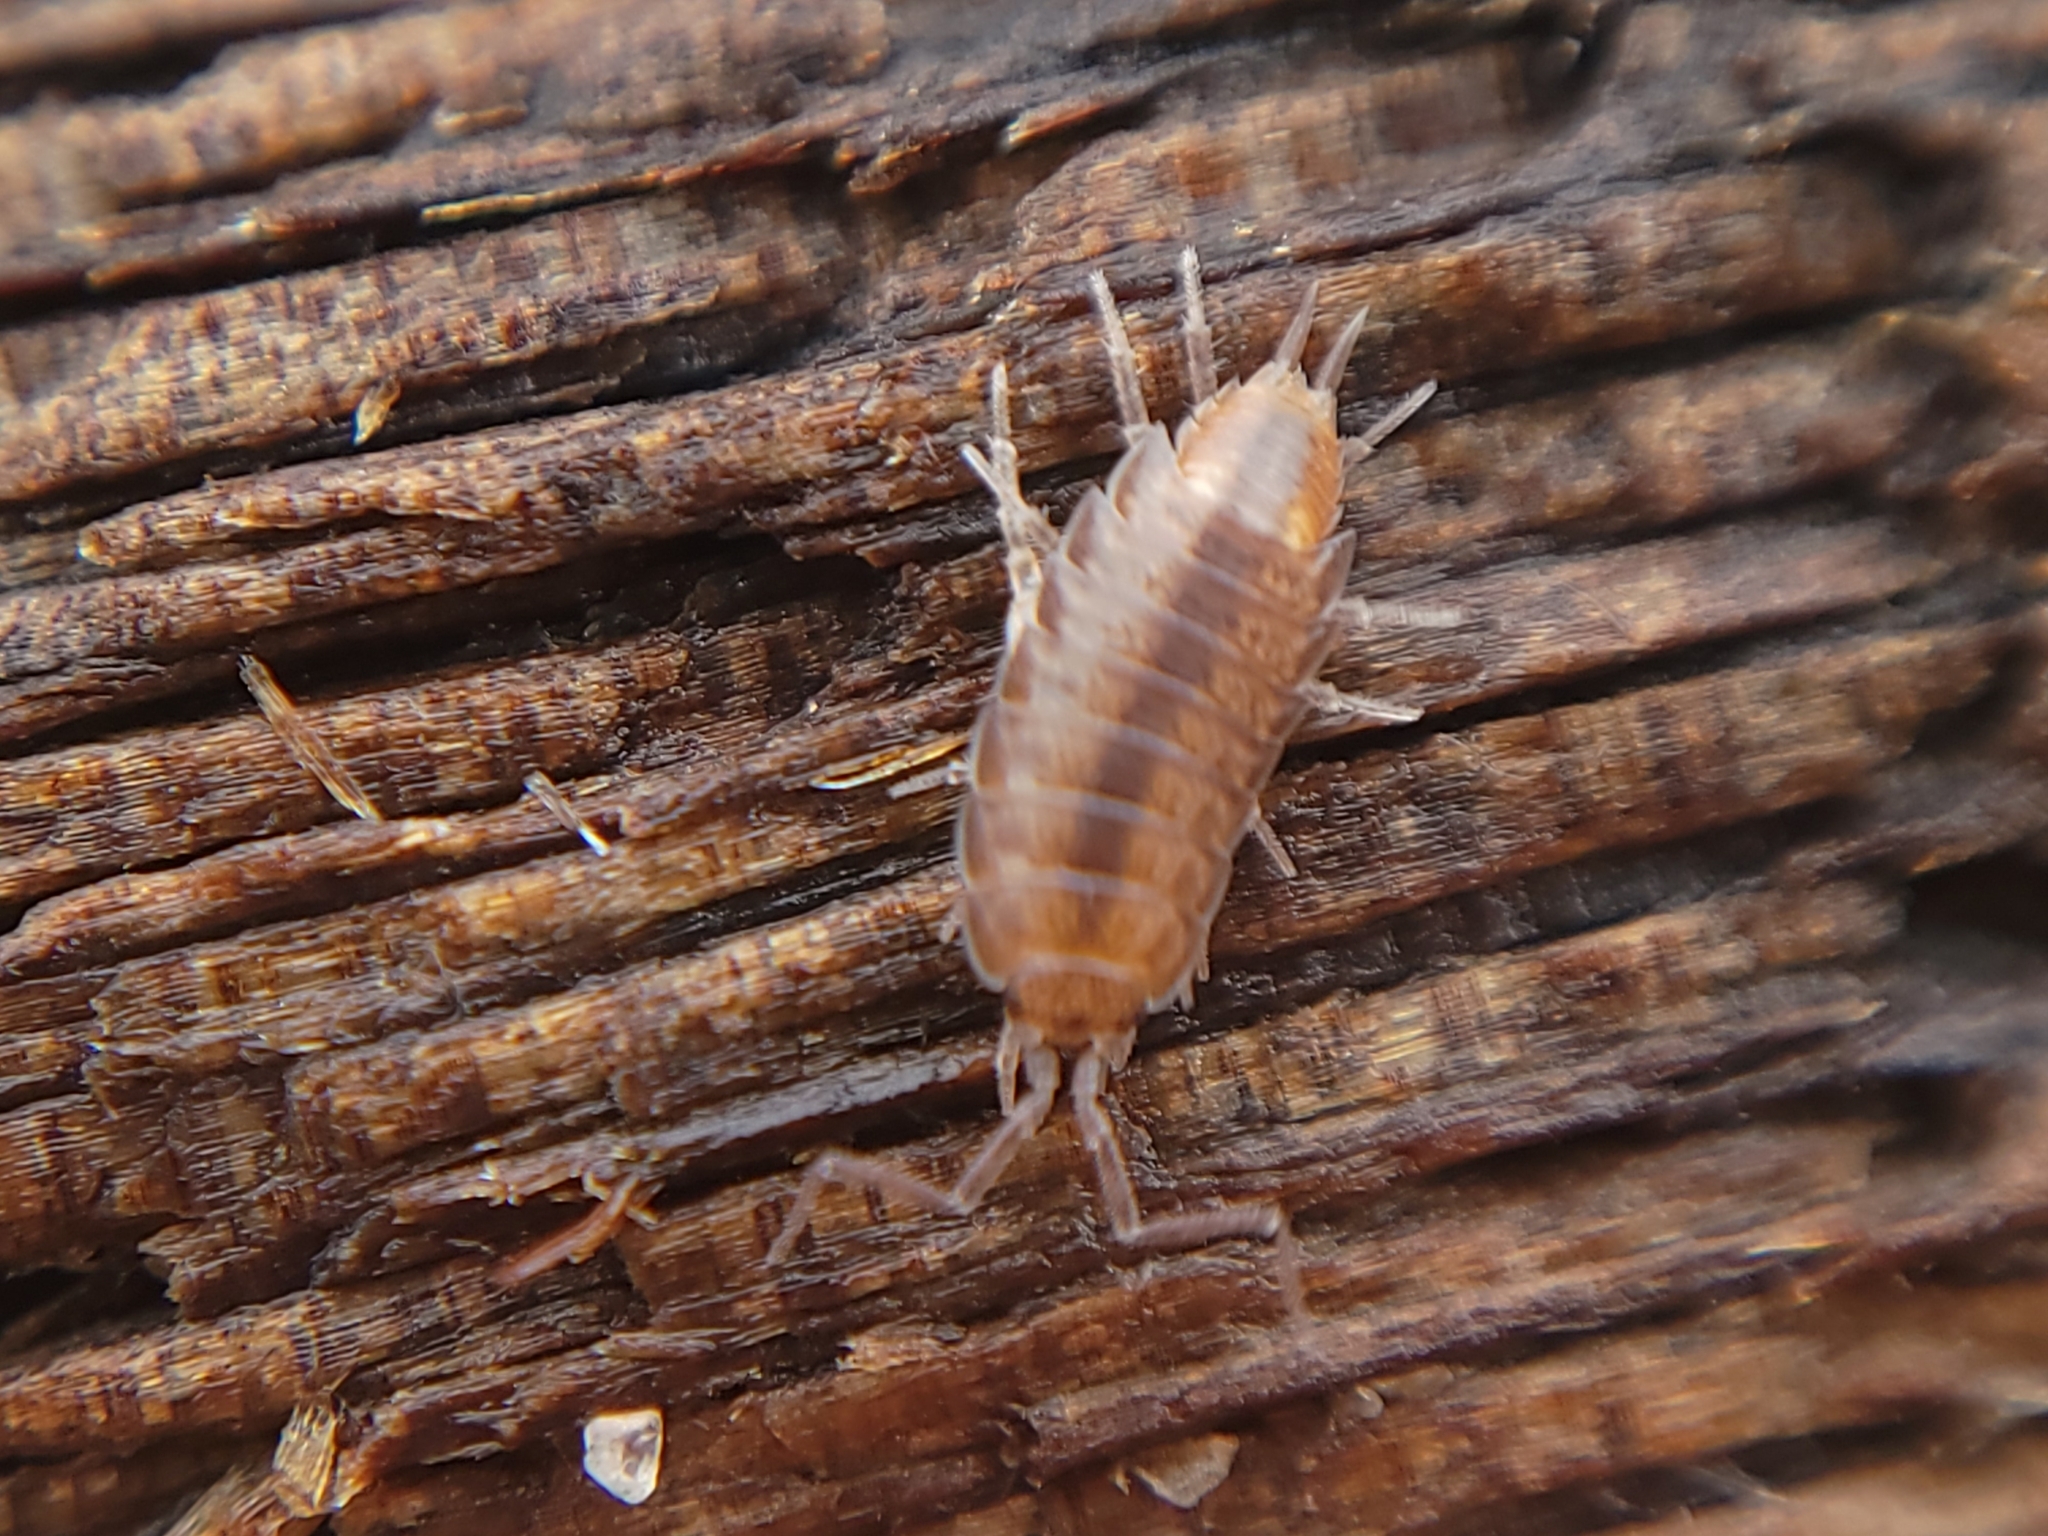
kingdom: Animalia
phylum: Arthropoda
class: Malacostraca
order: Isopoda
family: Halophilosciidae
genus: Littorophiloscia
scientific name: Littorophiloscia richardsonae
